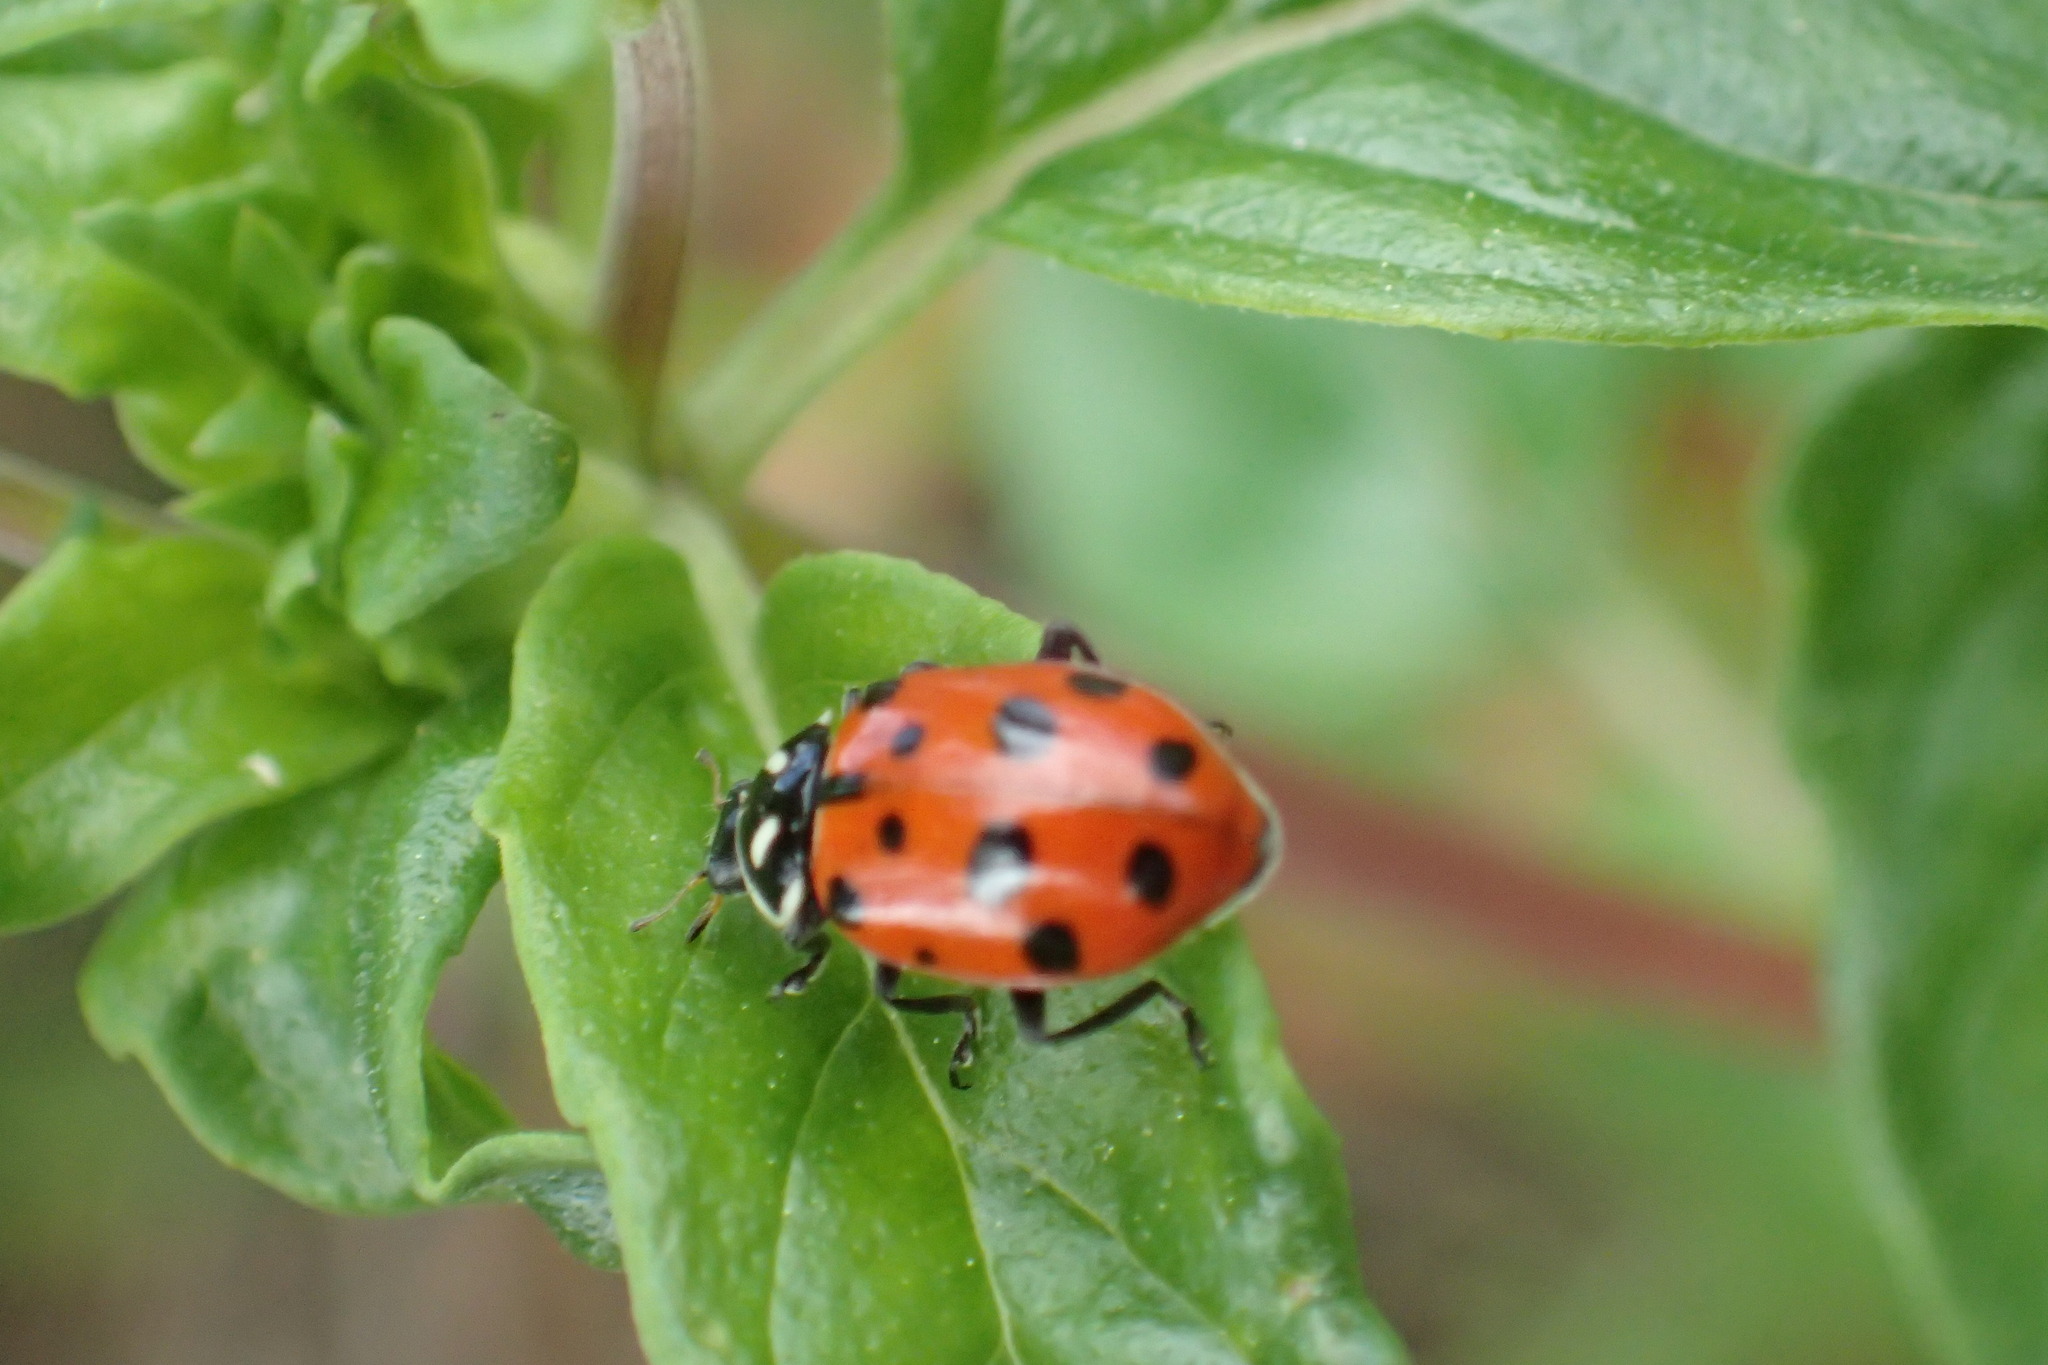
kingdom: Animalia
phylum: Arthropoda
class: Insecta
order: Coleoptera
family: Coccinellidae
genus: Hippodamia
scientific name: Hippodamia convergens
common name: Convergent lady beetle
